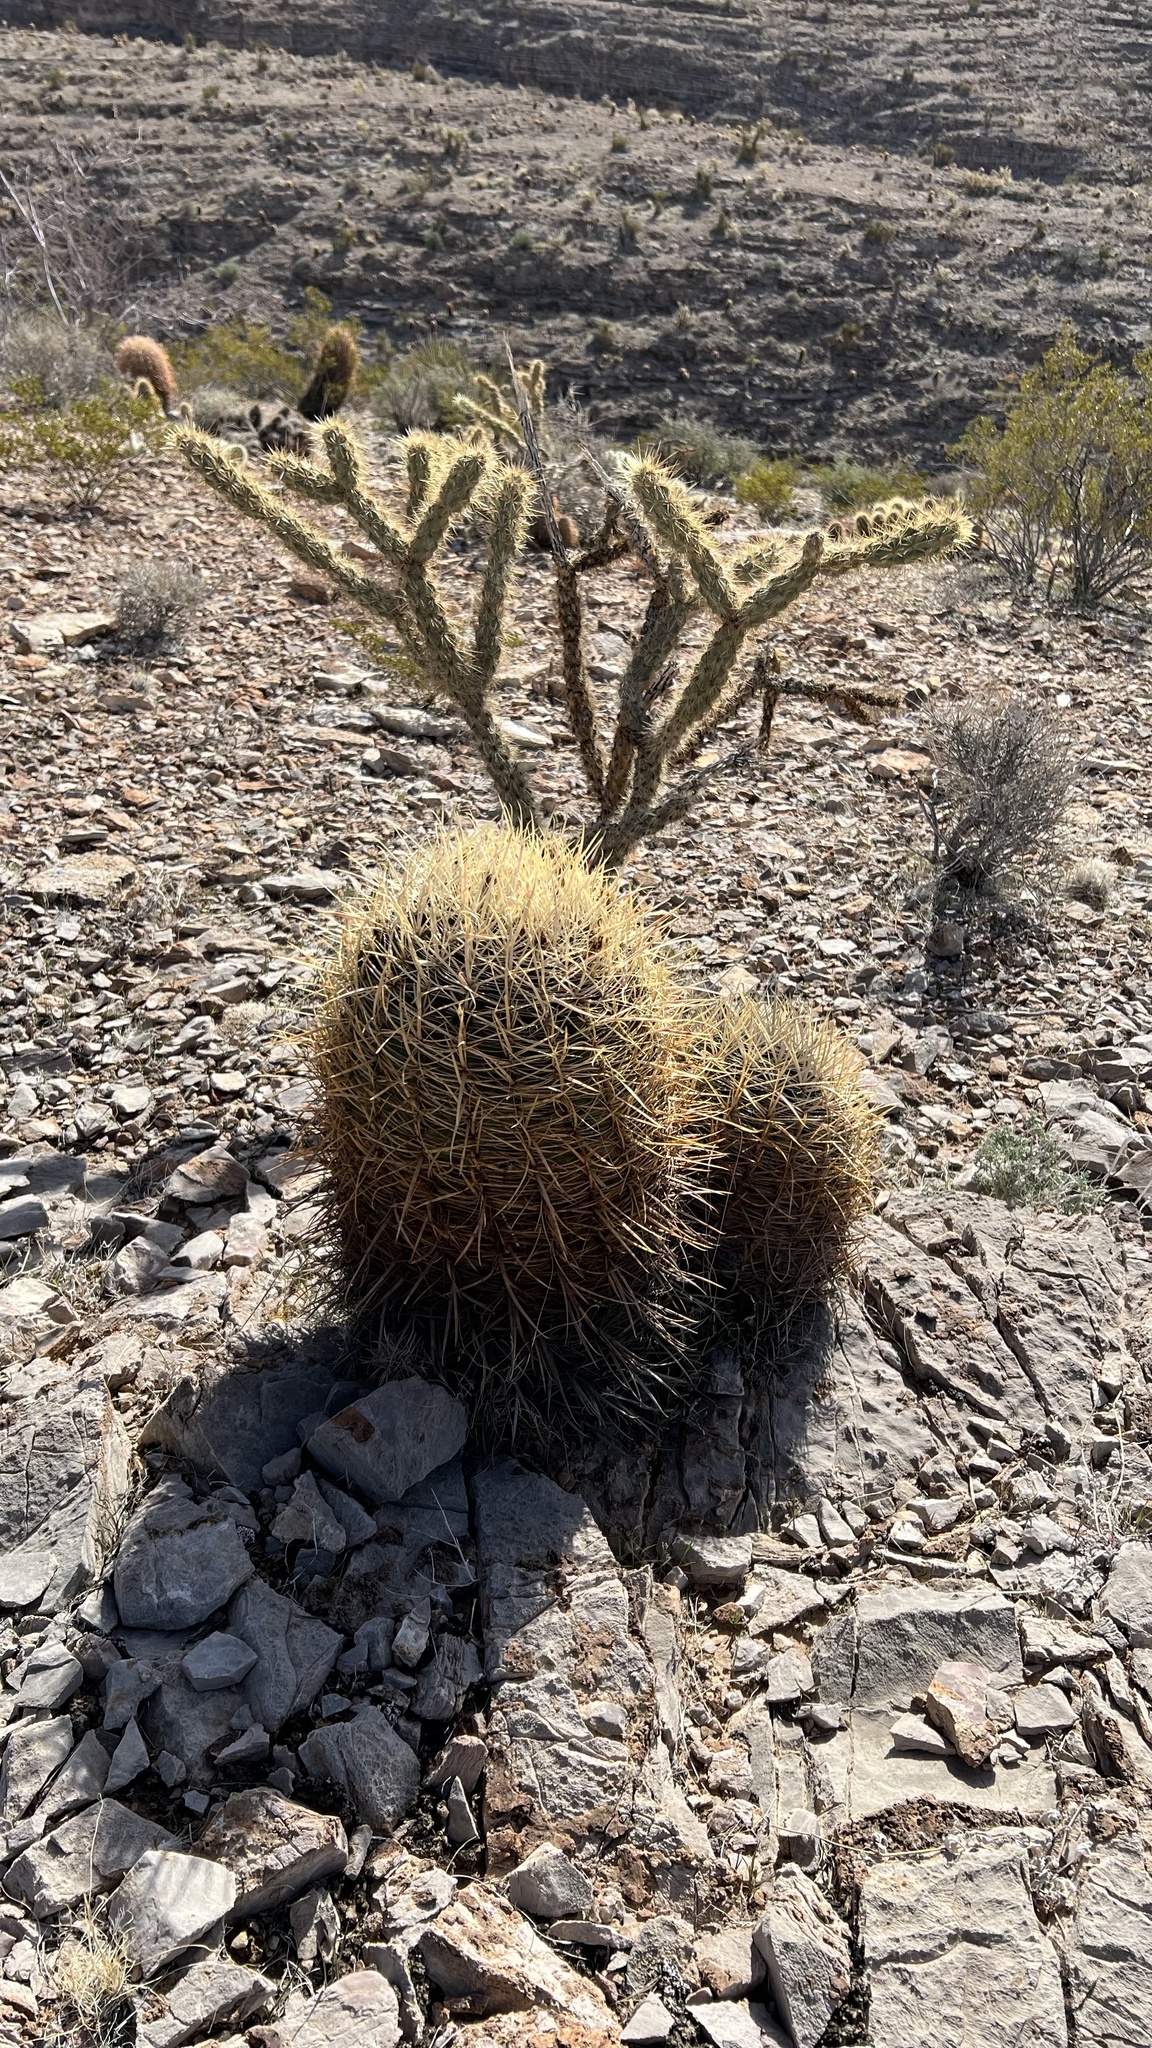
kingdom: Plantae
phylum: Tracheophyta
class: Magnoliopsida
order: Caryophyllales
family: Cactaceae
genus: Ferocactus
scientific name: Ferocactus cylindraceus
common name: California barrel cactus
